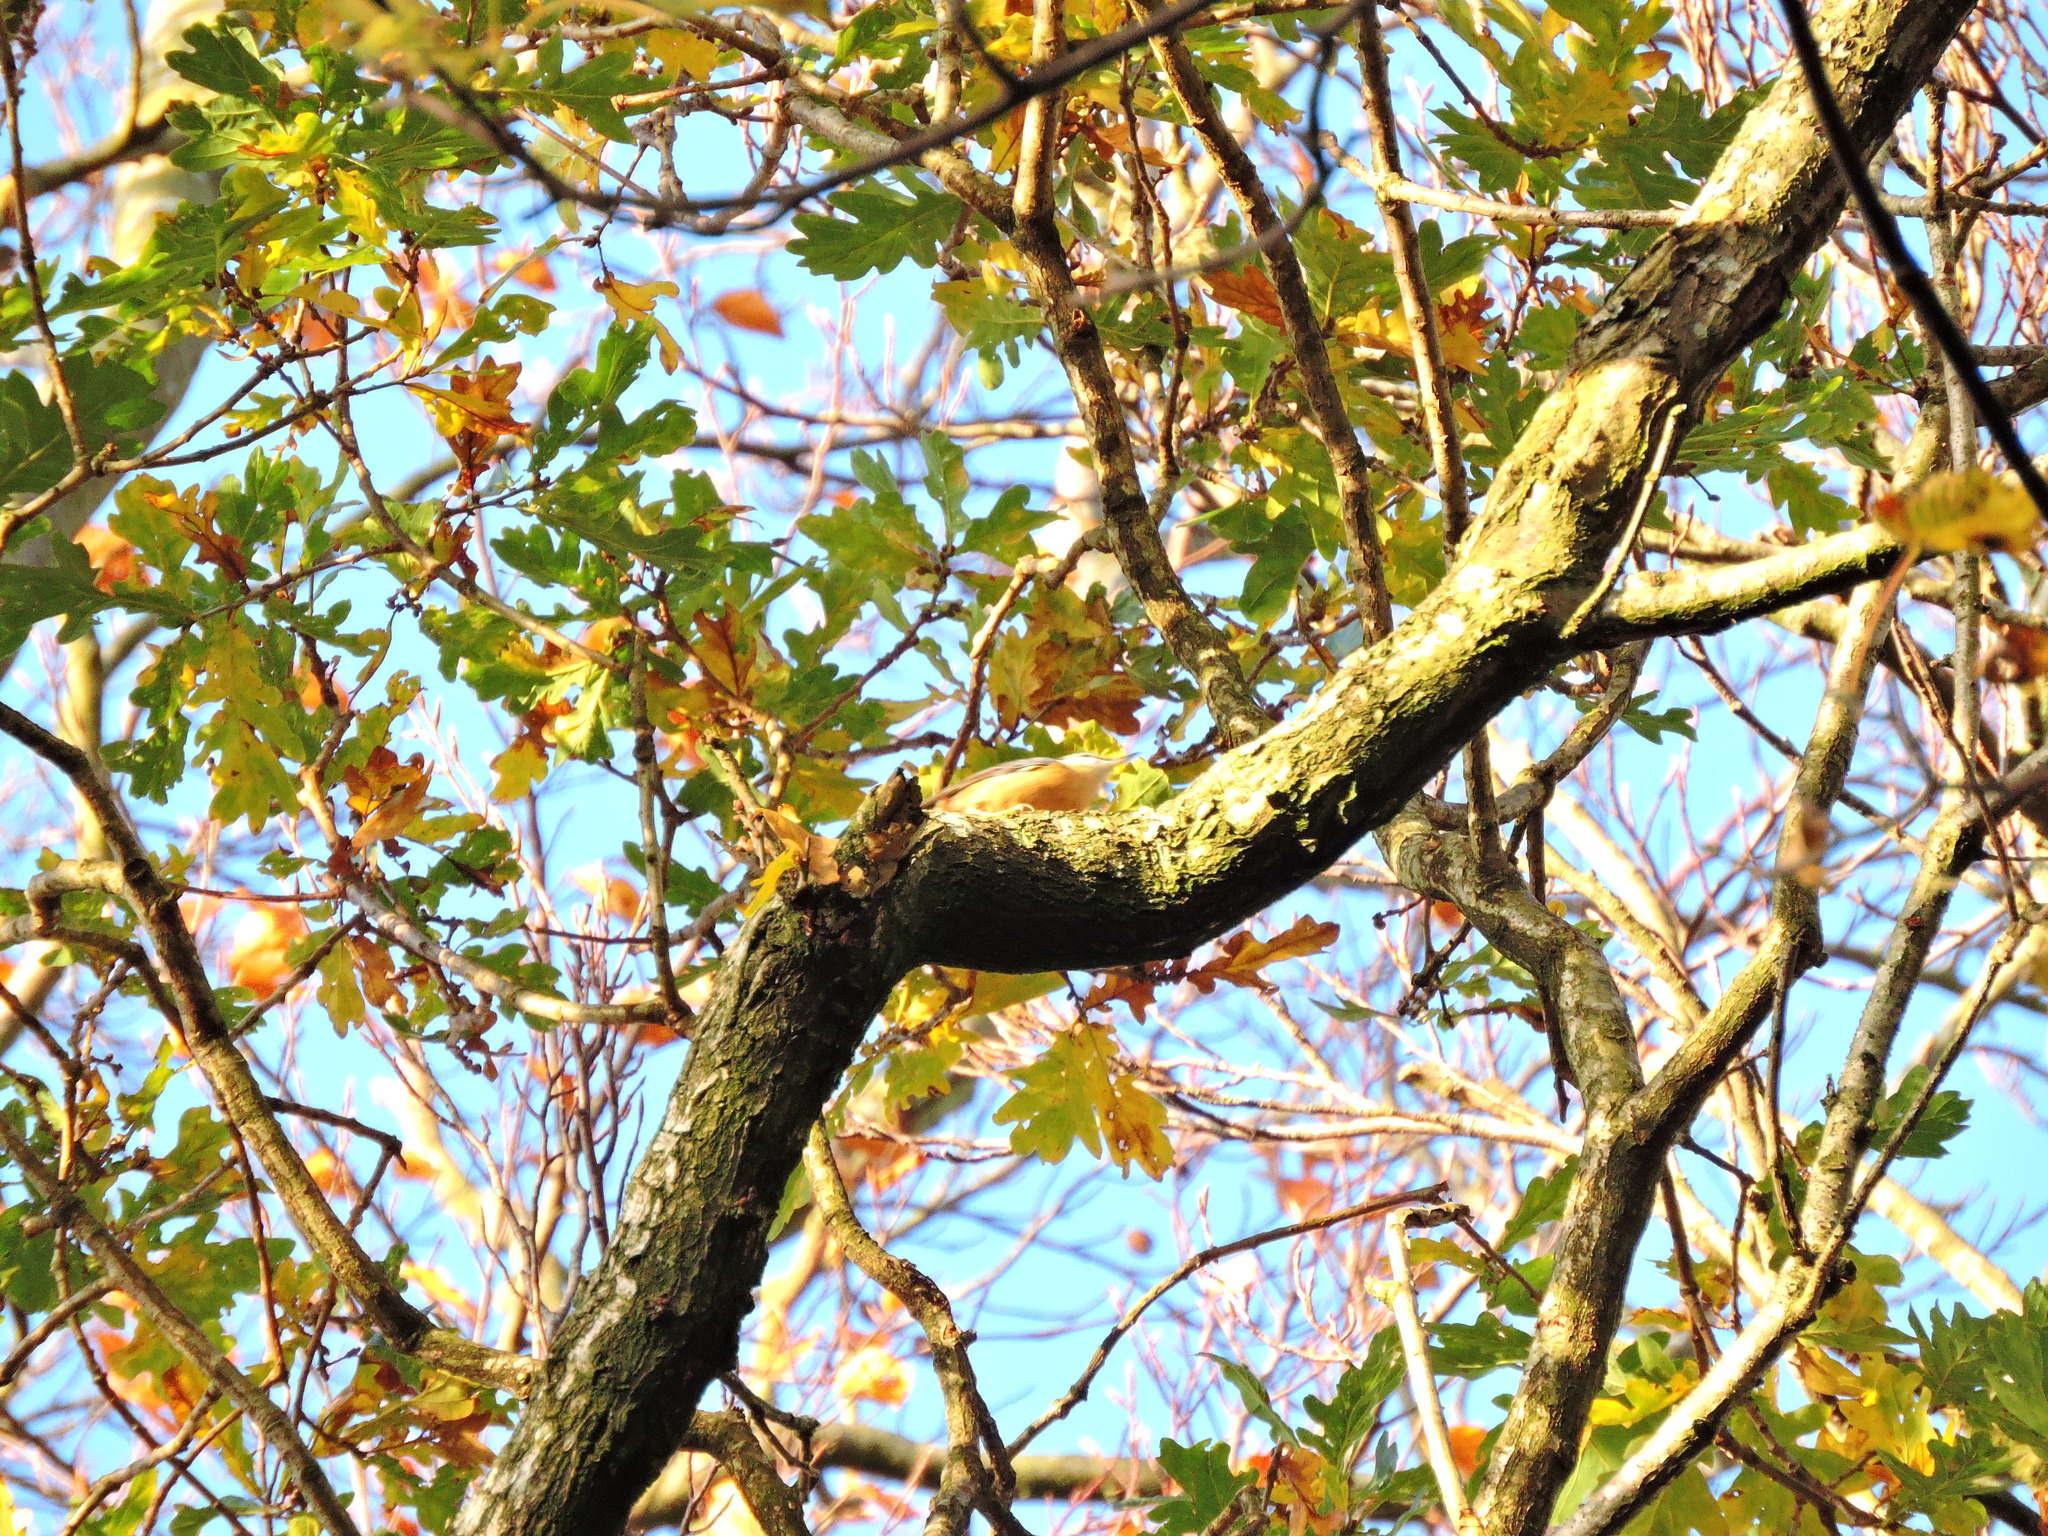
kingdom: Animalia
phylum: Chordata
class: Aves
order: Passeriformes
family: Sittidae
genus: Sitta
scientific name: Sitta europaea
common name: Eurasian nuthatch
